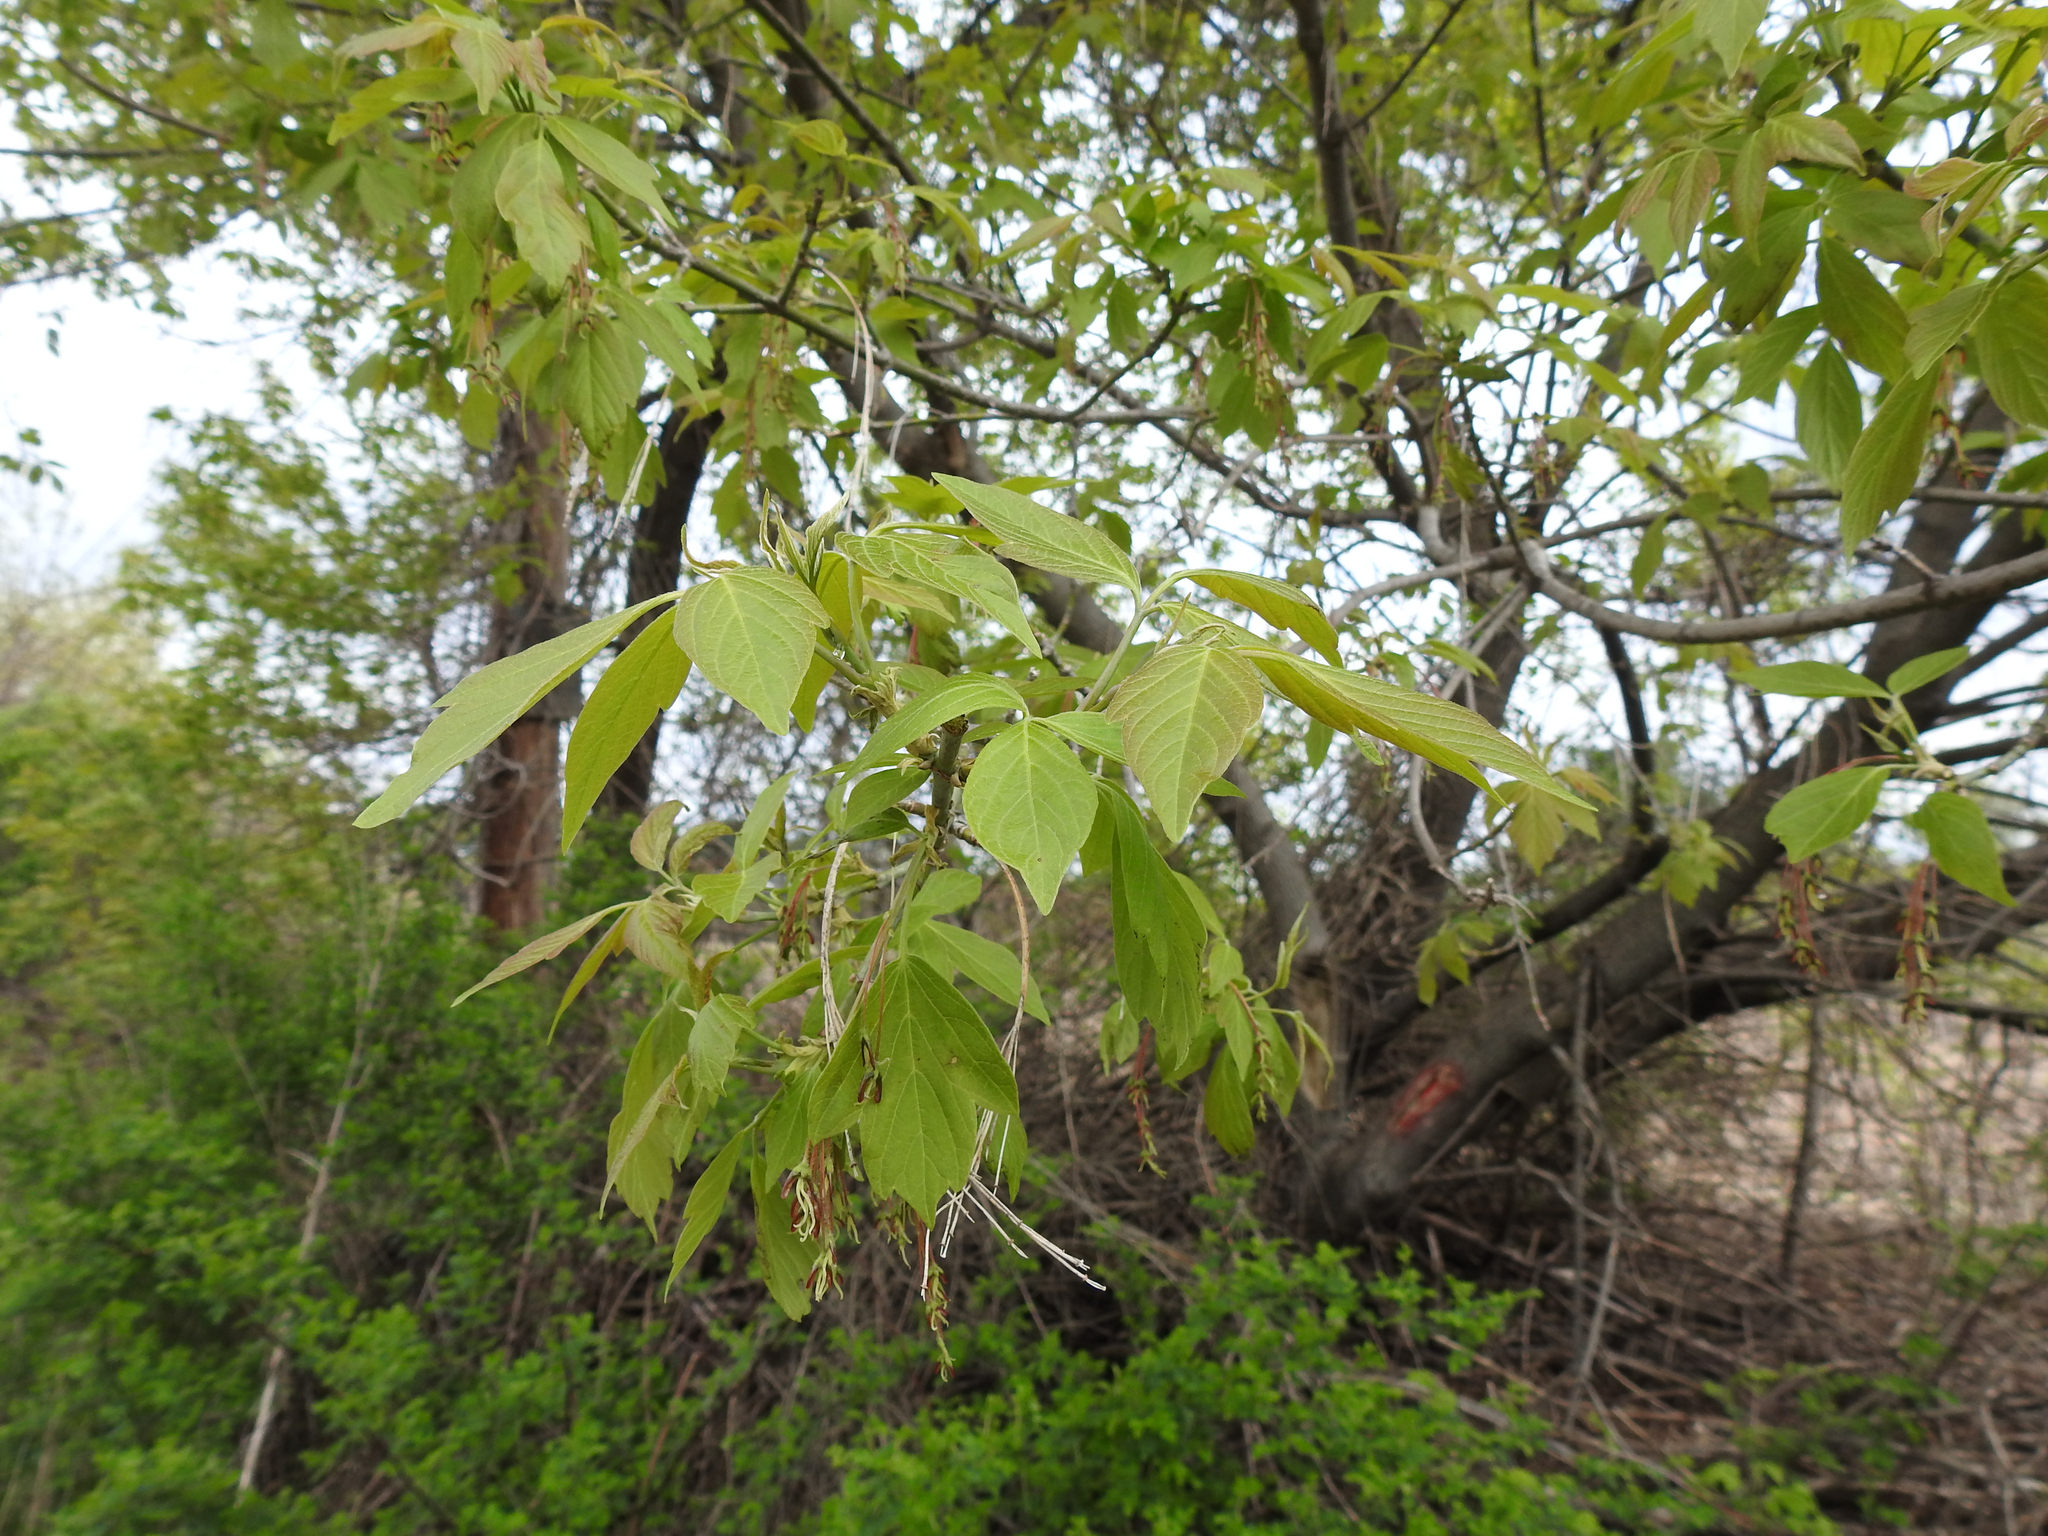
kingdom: Plantae
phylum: Tracheophyta
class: Magnoliopsida
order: Sapindales
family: Sapindaceae
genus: Acer
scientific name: Acer negundo
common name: Ashleaf maple
